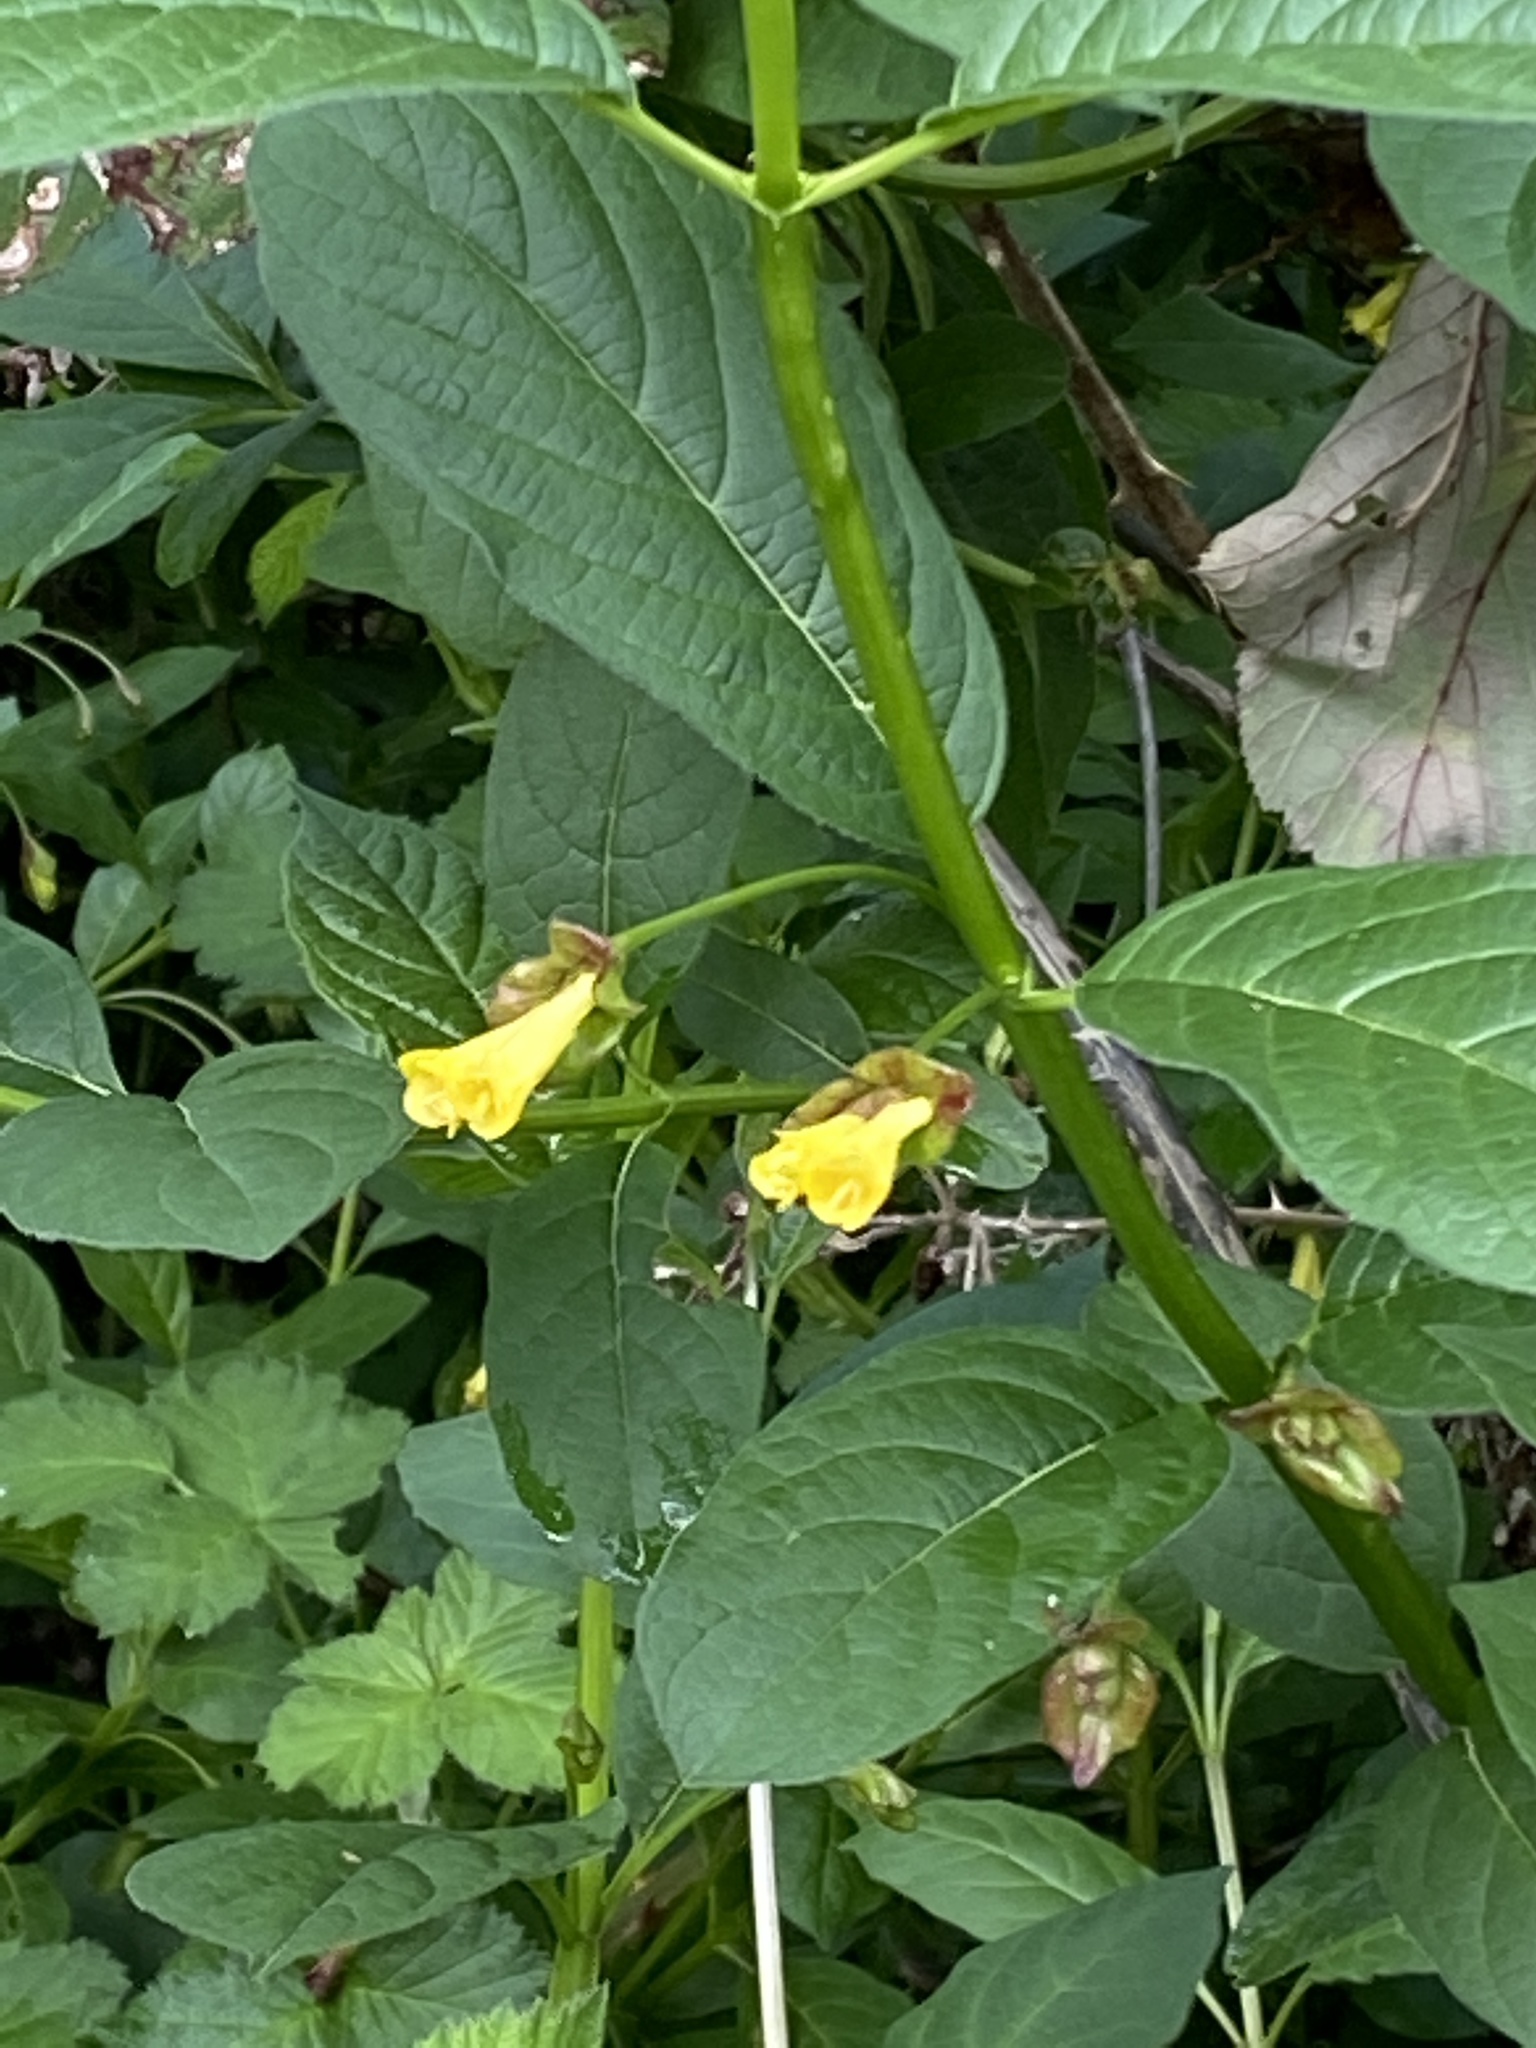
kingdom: Plantae
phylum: Tracheophyta
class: Magnoliopsida
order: Dipsacales
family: Caprifoliaceae
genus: Lonicera
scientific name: Lonicera involucrata
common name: Californian honeysuckle
